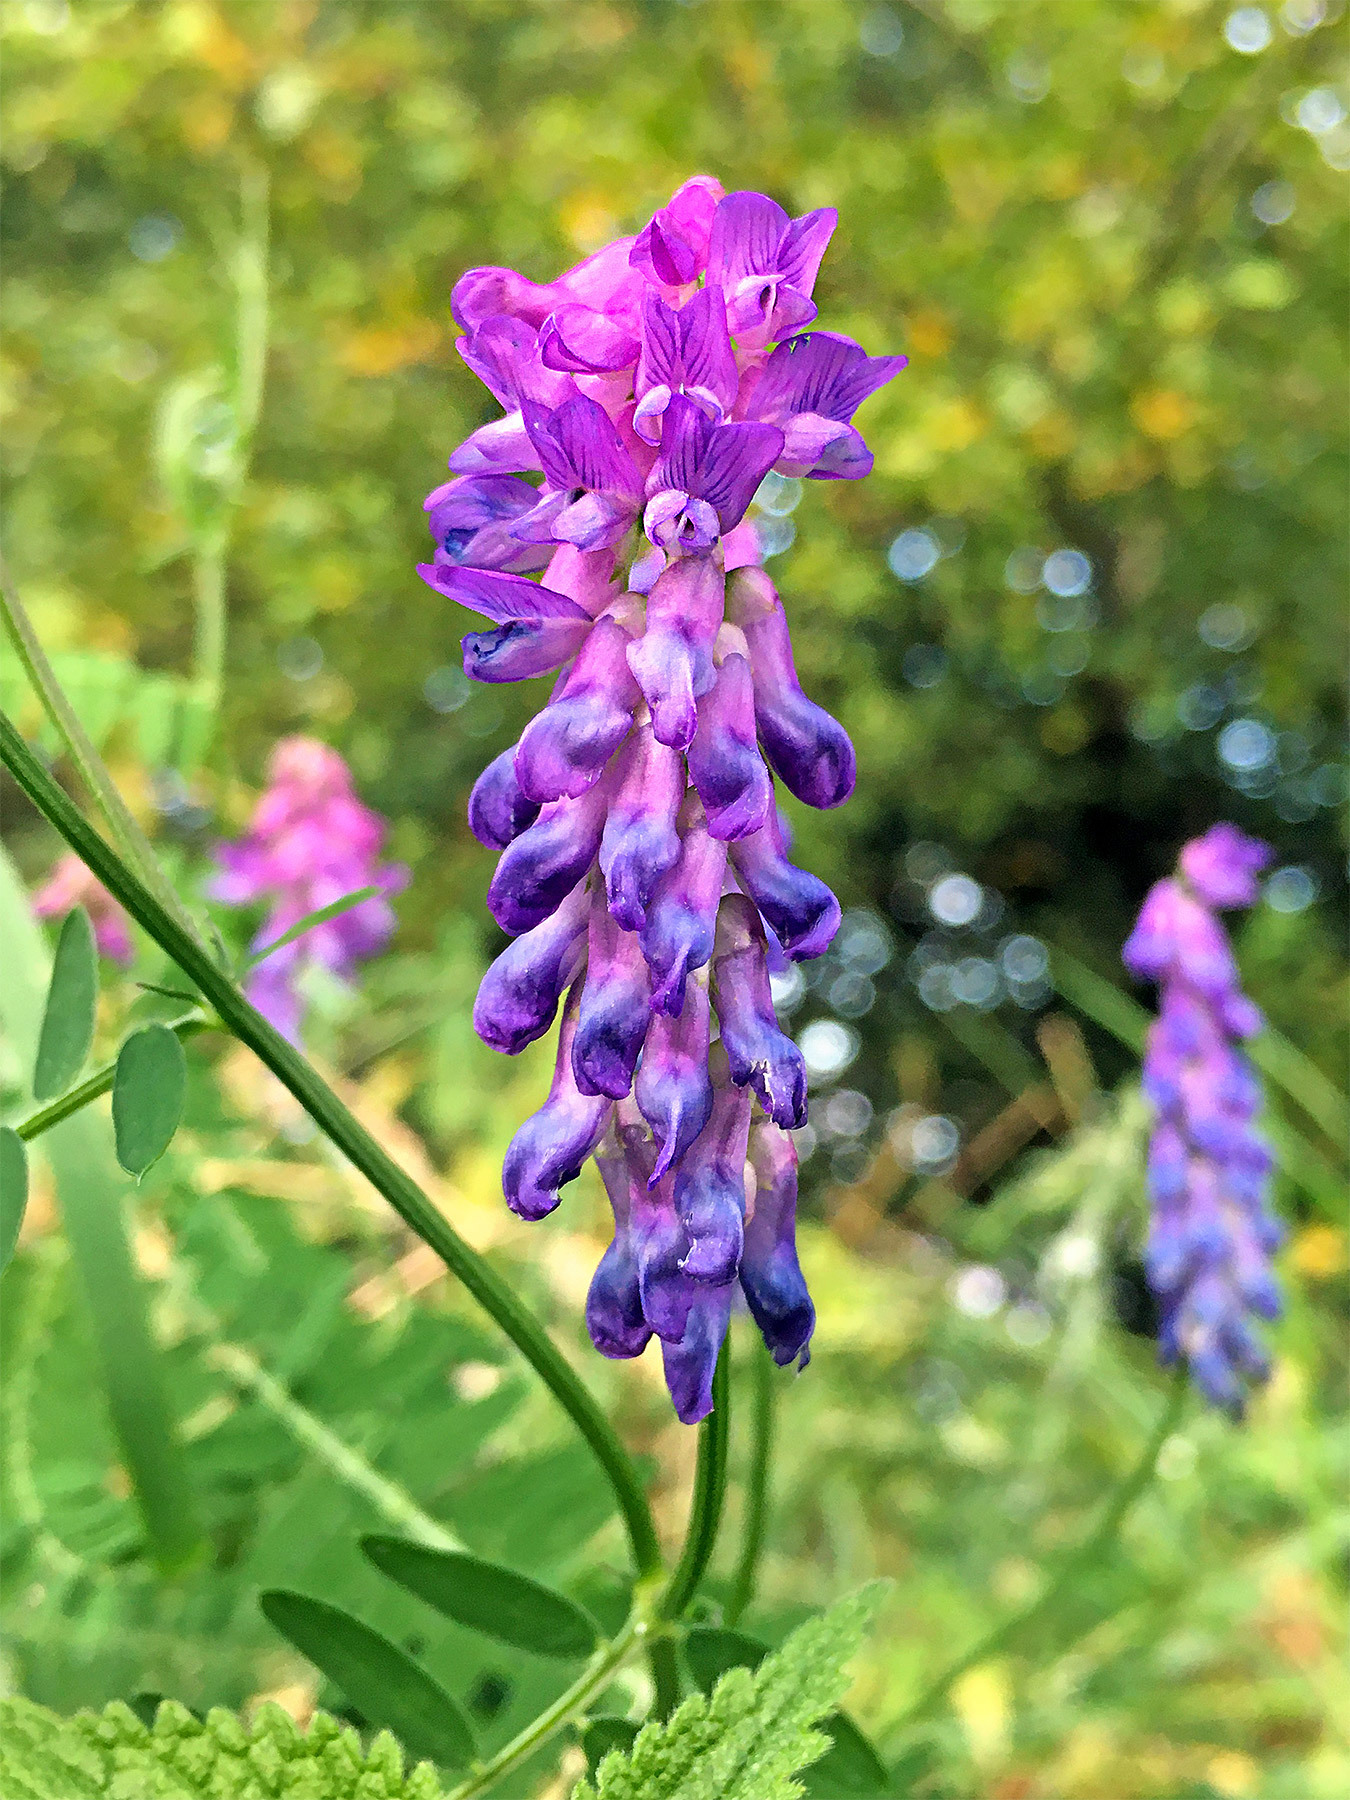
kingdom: Plantae
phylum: Tracheophyta
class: Magnoliopsida
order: Fabales
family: Fabaceae
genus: Vicia
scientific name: Vicia cracca
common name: Bird vetch
